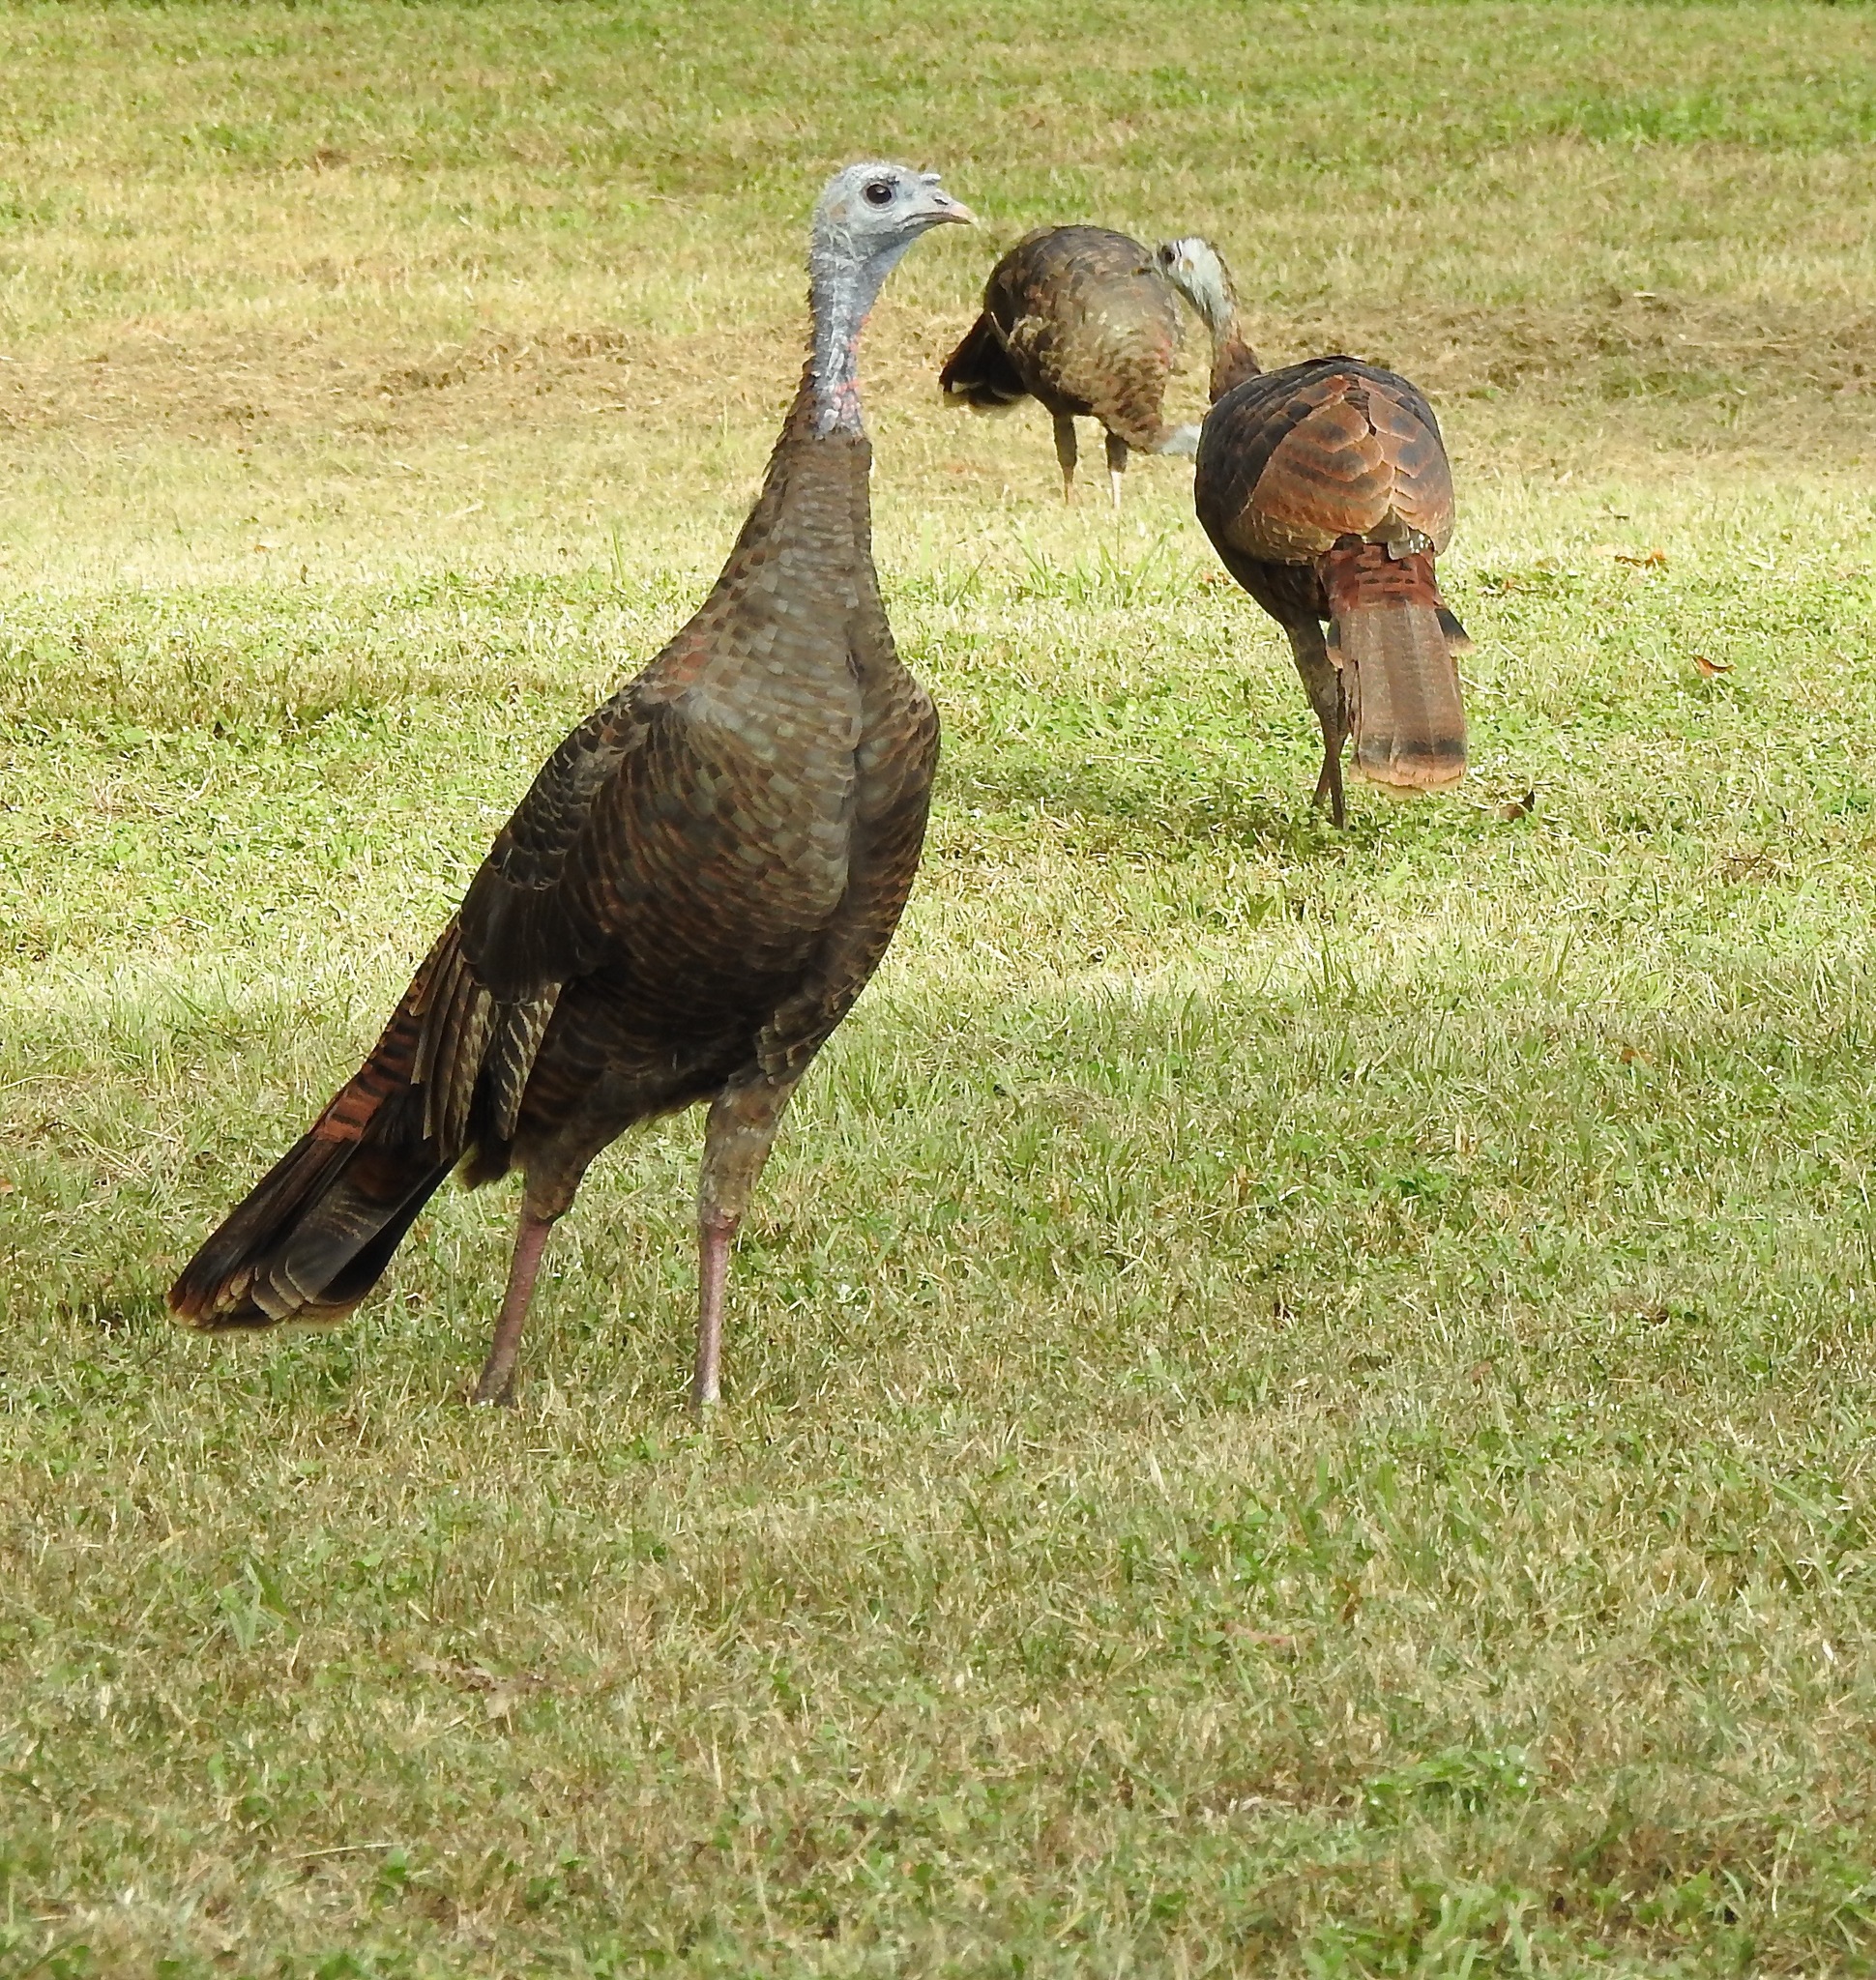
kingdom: Animalia
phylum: Chordata
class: Aves
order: Galliformes
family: Phasianidae
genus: Meleagris
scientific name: Meleagris gallopavo
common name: Wild turkey
